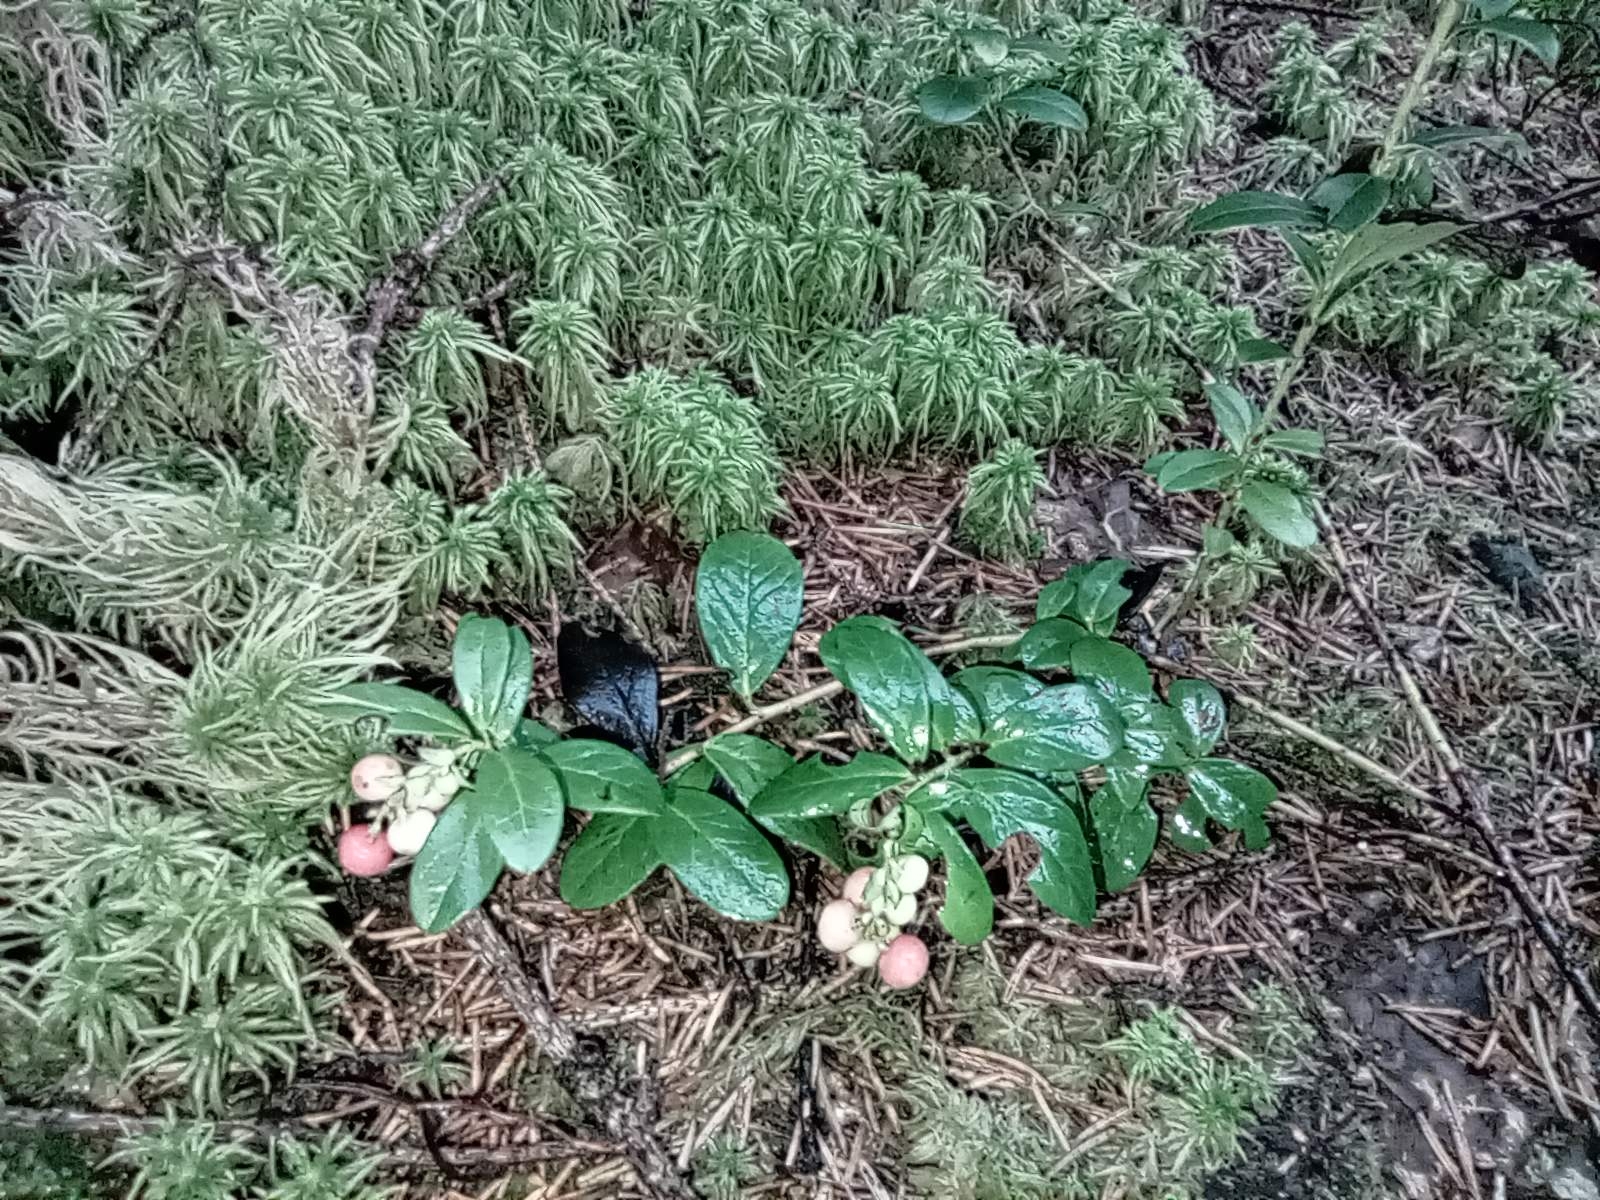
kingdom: Plantae
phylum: Tracheophyta
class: Magnoliopsida
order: Ericales
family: Ericaceae
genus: Vaccinium
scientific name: Vaccinium vitis-idaea
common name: Cowberry
